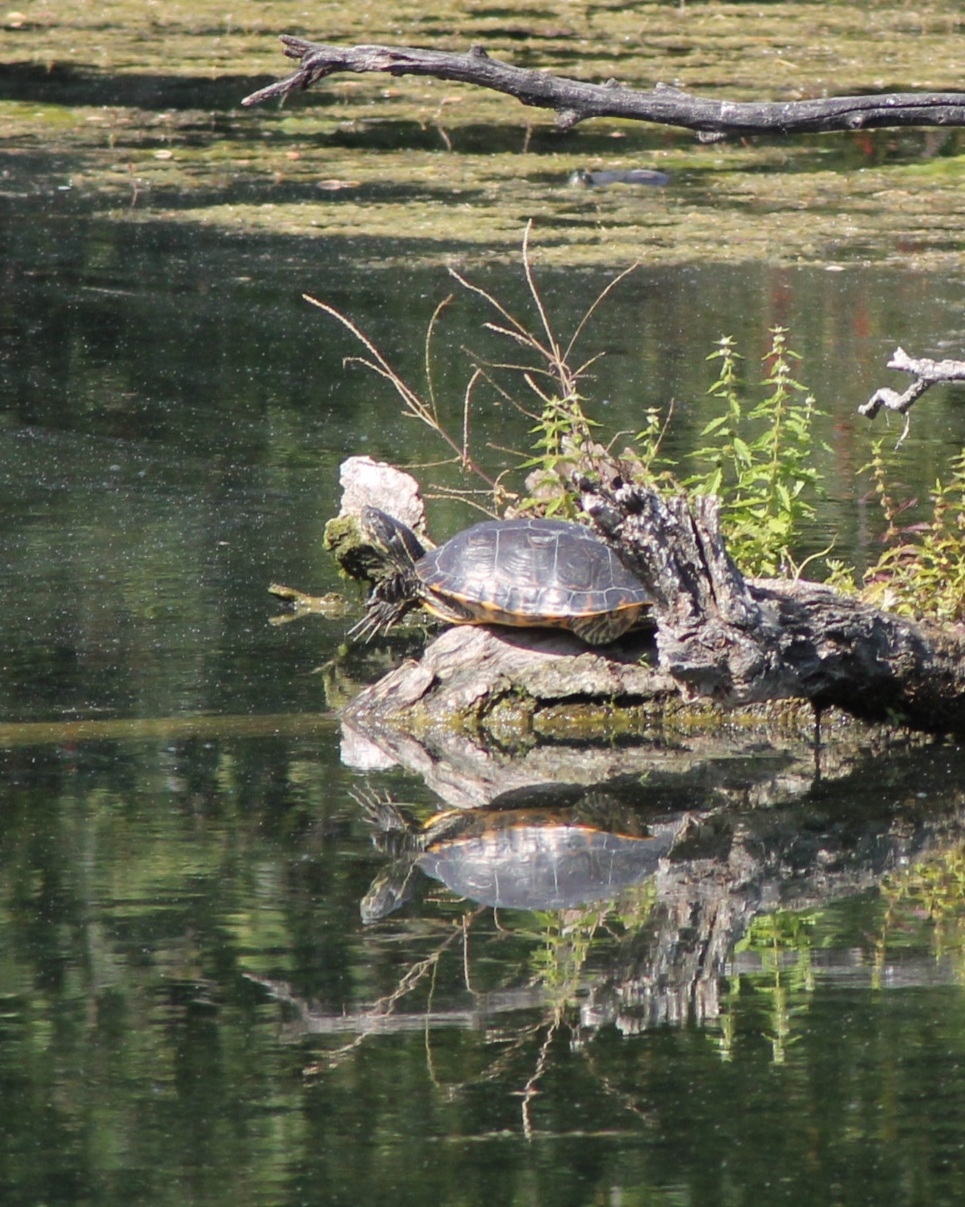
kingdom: Animalia
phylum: Chordata
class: Testudines
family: Emydidae
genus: Pseudemys
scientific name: Pseudemys concinna
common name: Eastern river cooter
